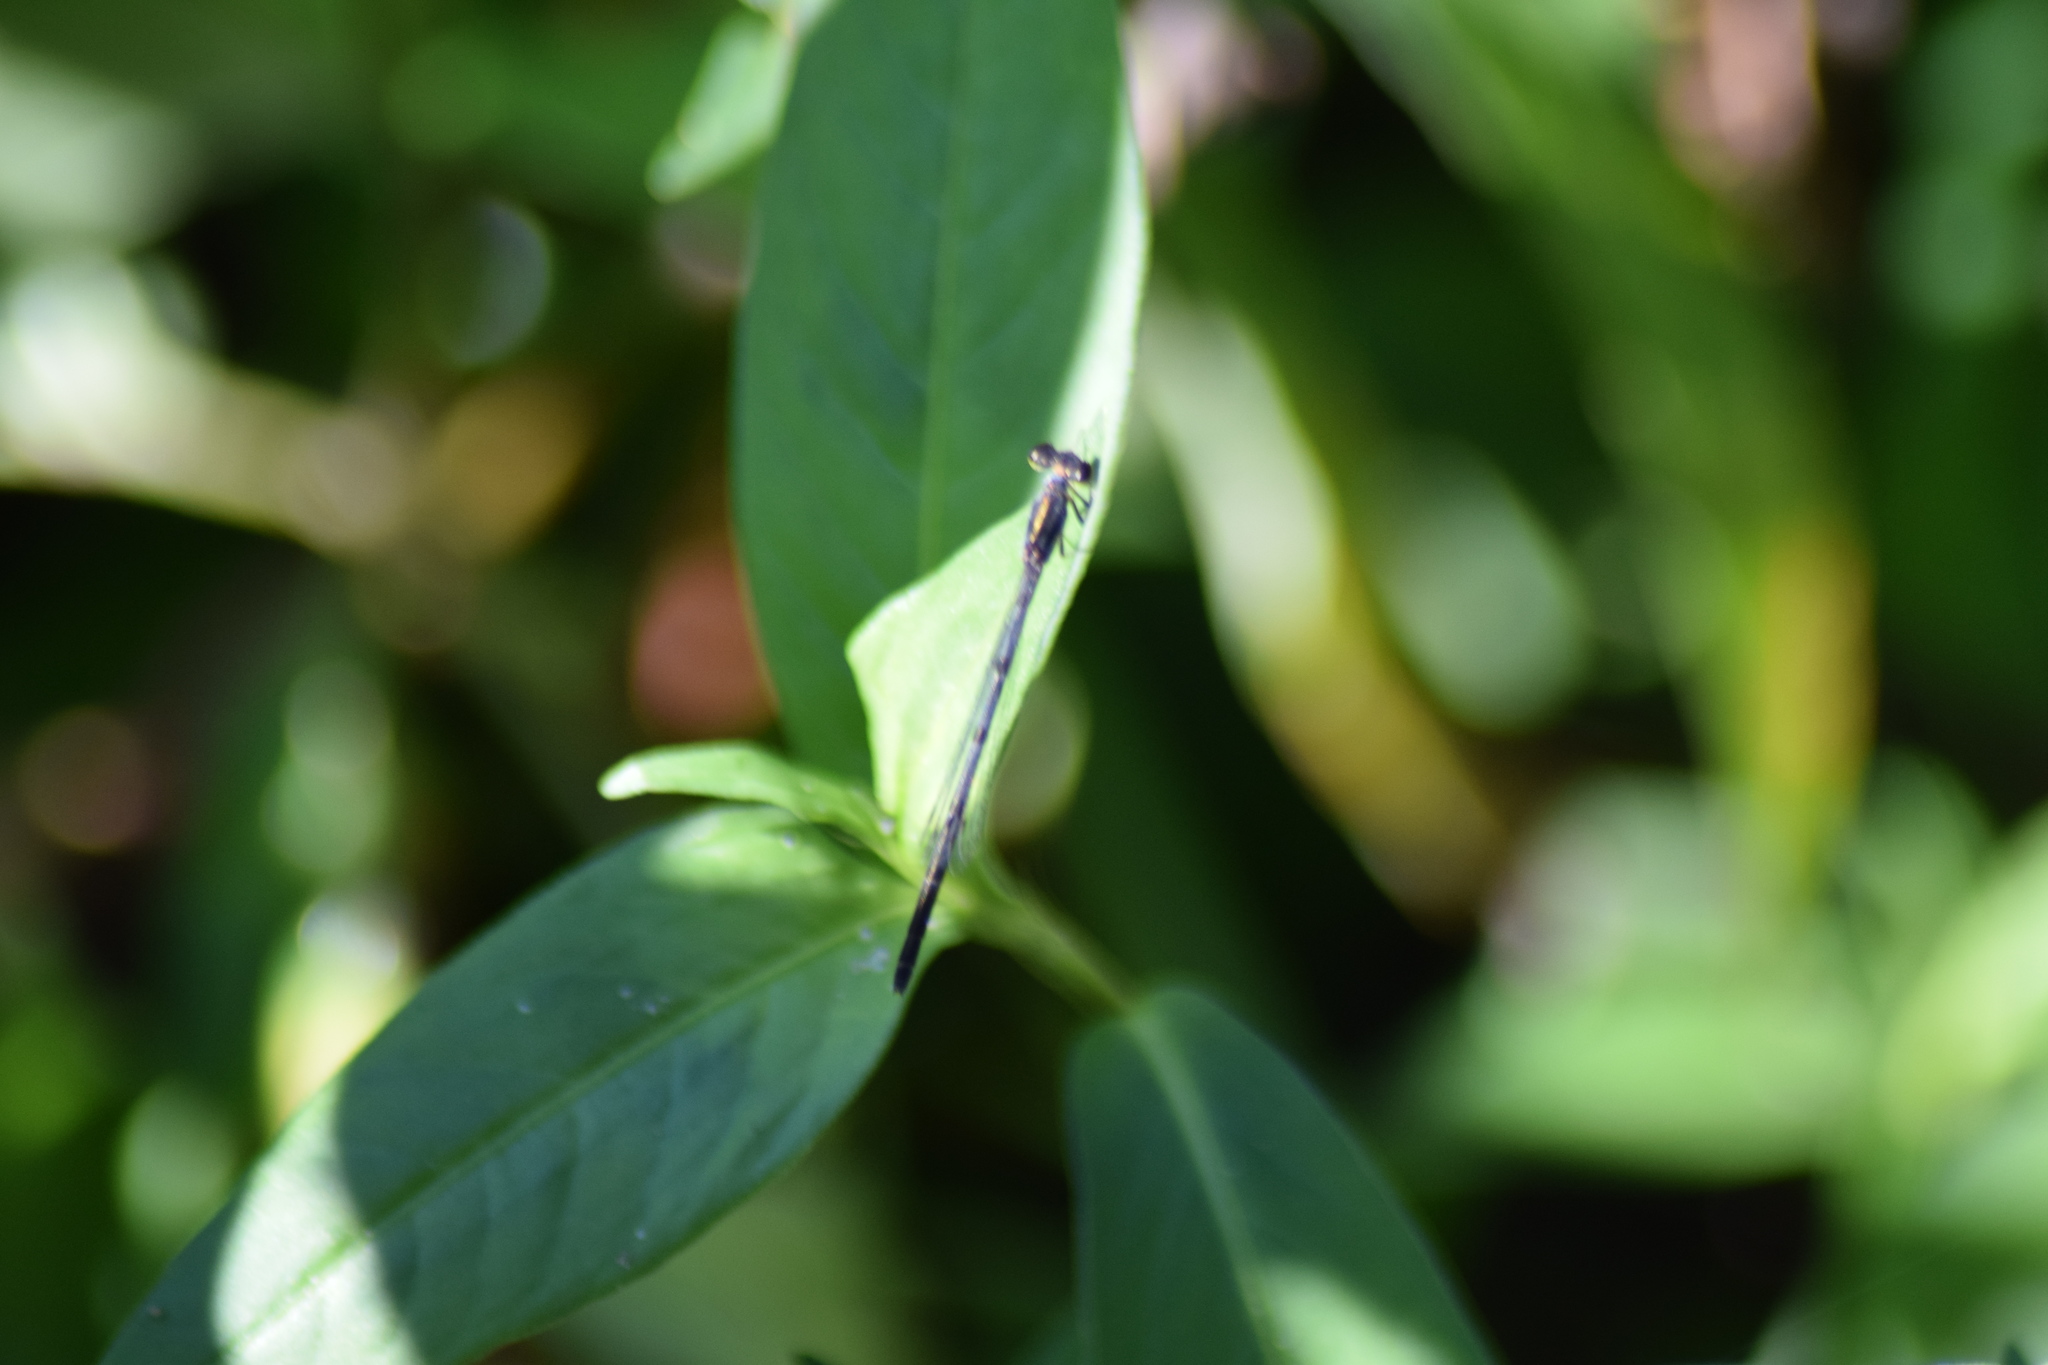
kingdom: Animalia
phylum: Arthropoda
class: Insecta
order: Odonata
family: Coenagrionidae
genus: Ischnura
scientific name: Ischnura posita
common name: Fragile forktail
